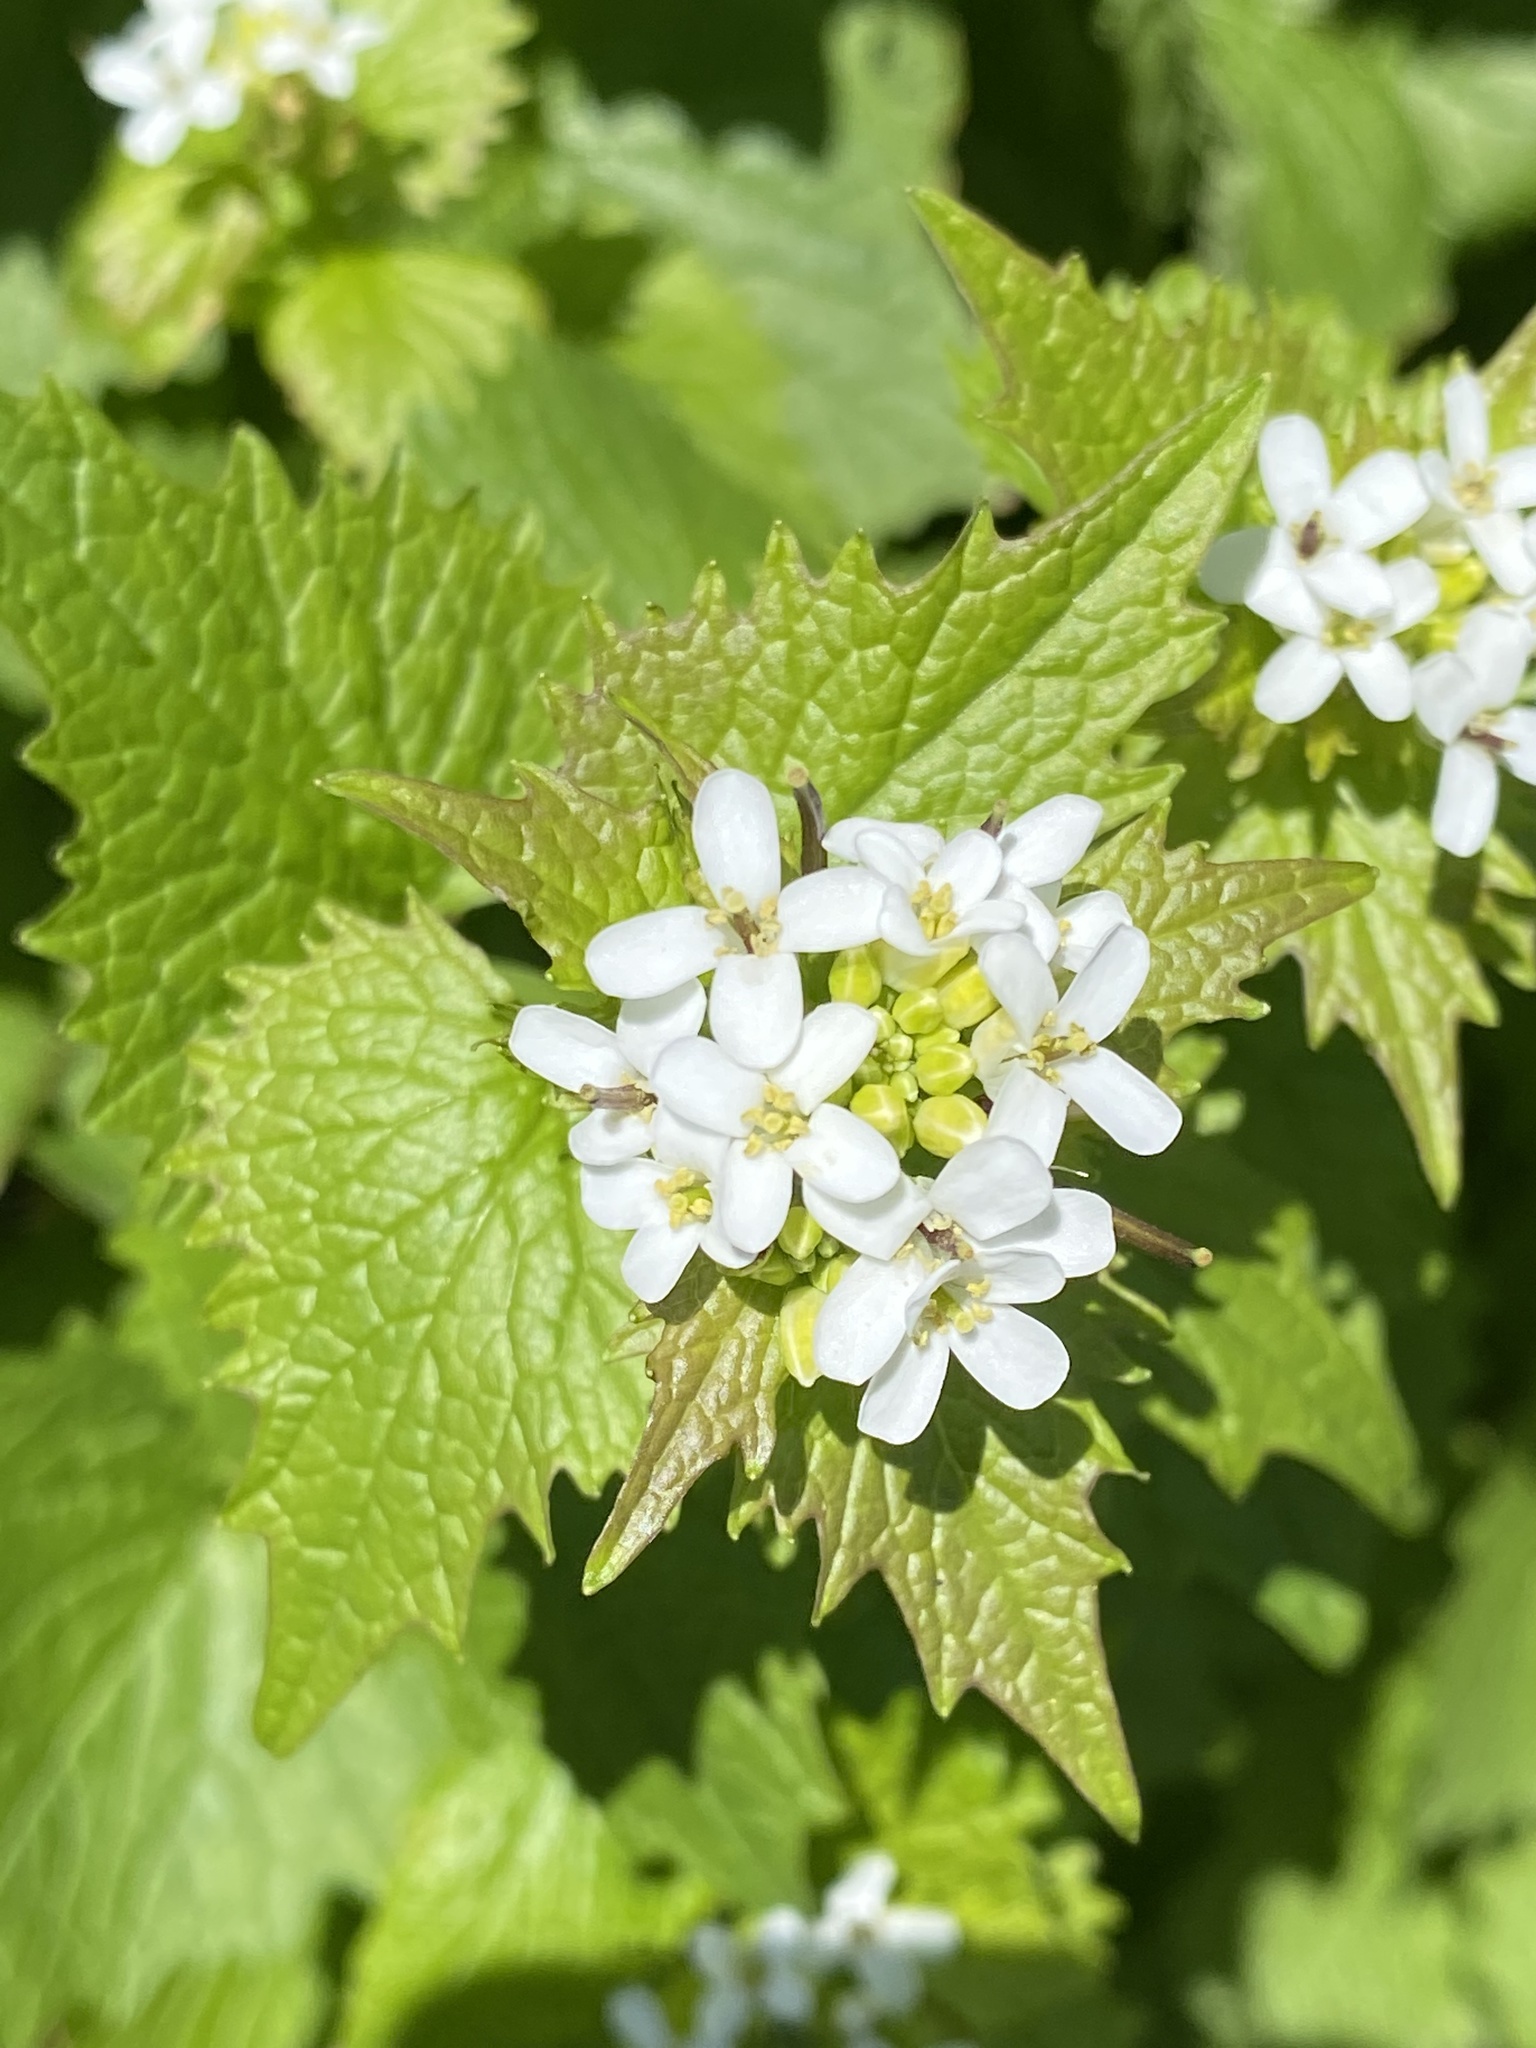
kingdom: Plantae
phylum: Tracheophyta
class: Magnoliopsida
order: Brassicales
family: Brassicaceae
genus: Alliaria
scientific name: Alliaria petiolata
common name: Garlic mustard
